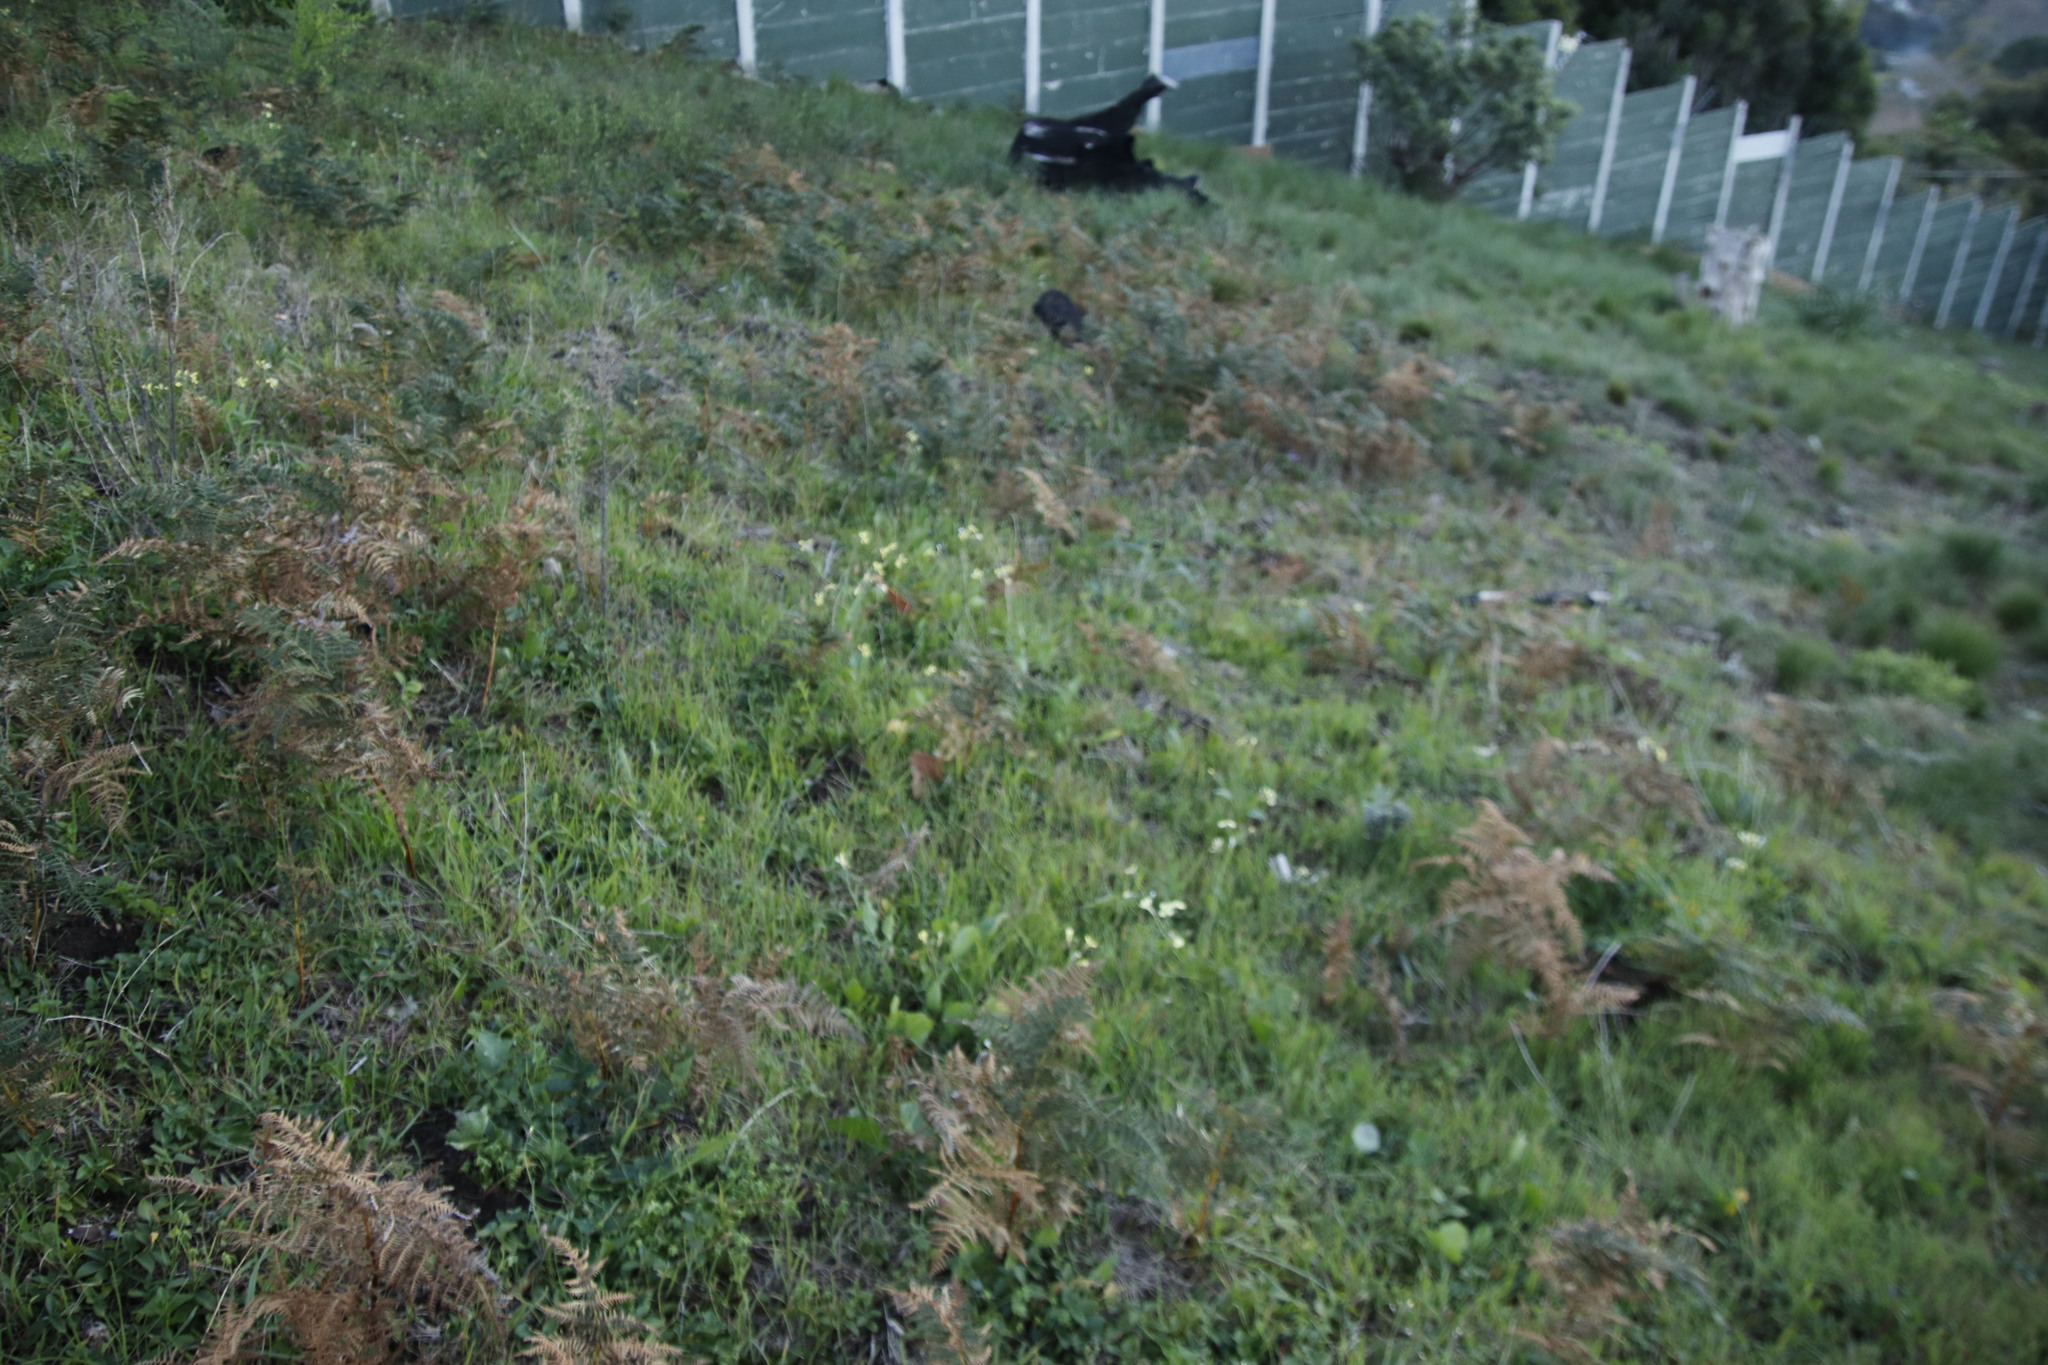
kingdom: Plantae
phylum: Tracheophyta
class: Magnoliopsida
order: Brassicales
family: Brassicaceae
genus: Raphanus
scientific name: Raphanus raphanistrum
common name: Wild radish
